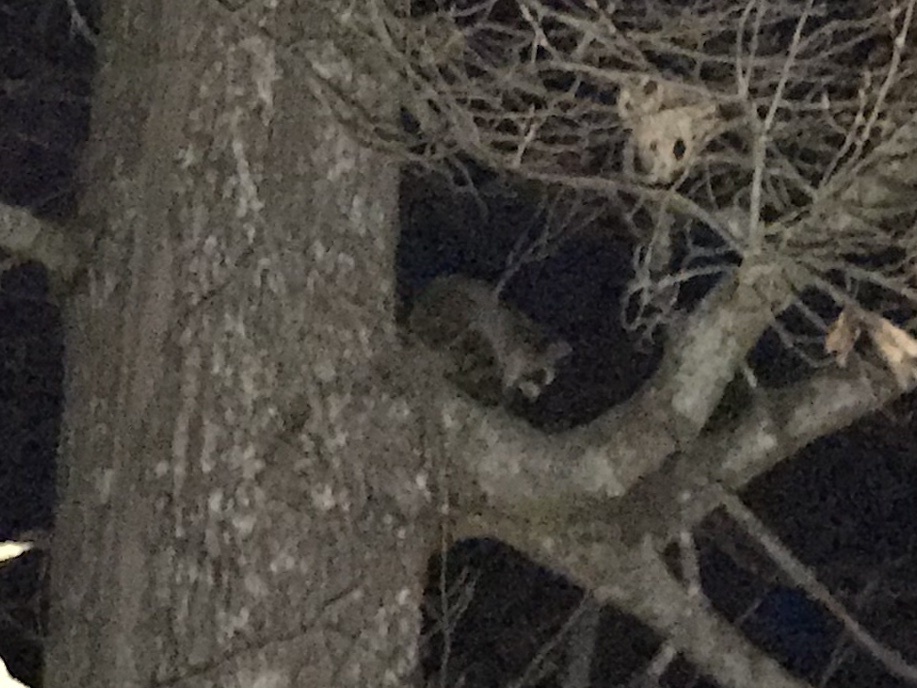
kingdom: Animalia
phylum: Chordata
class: Mammalia
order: Carnivora
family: Procyonidae
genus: Procyon
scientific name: Procyon lotor
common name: Raccoon
